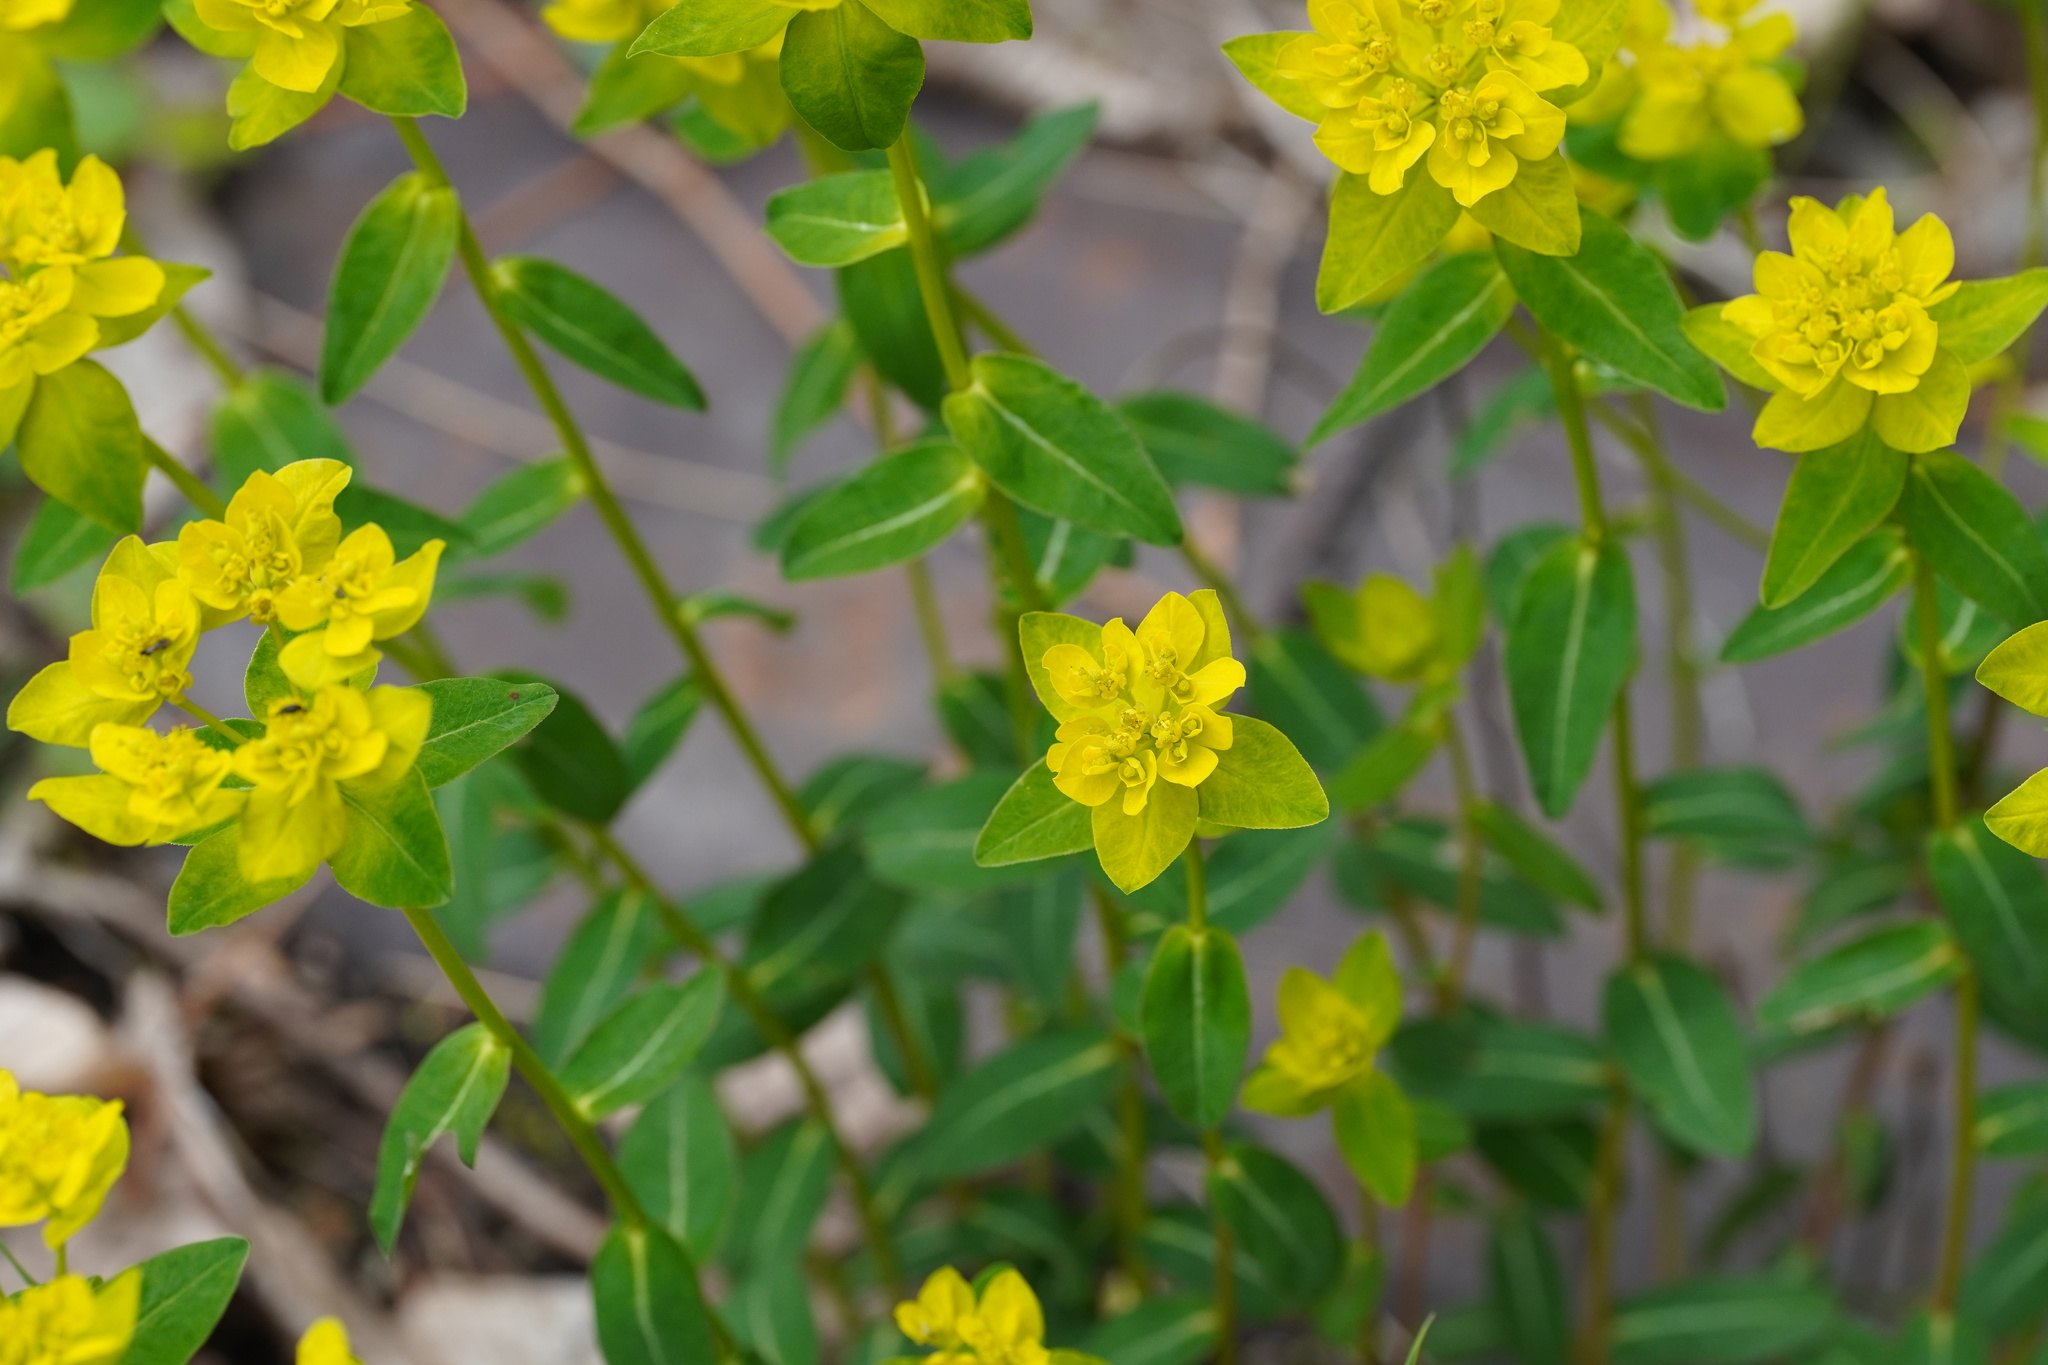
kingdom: Plantae
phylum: Tracheophyta
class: Magnoliopsida
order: Malpighiales
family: Euphorbiaceae
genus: Euphorbia
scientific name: Euphorbia verrucosa
